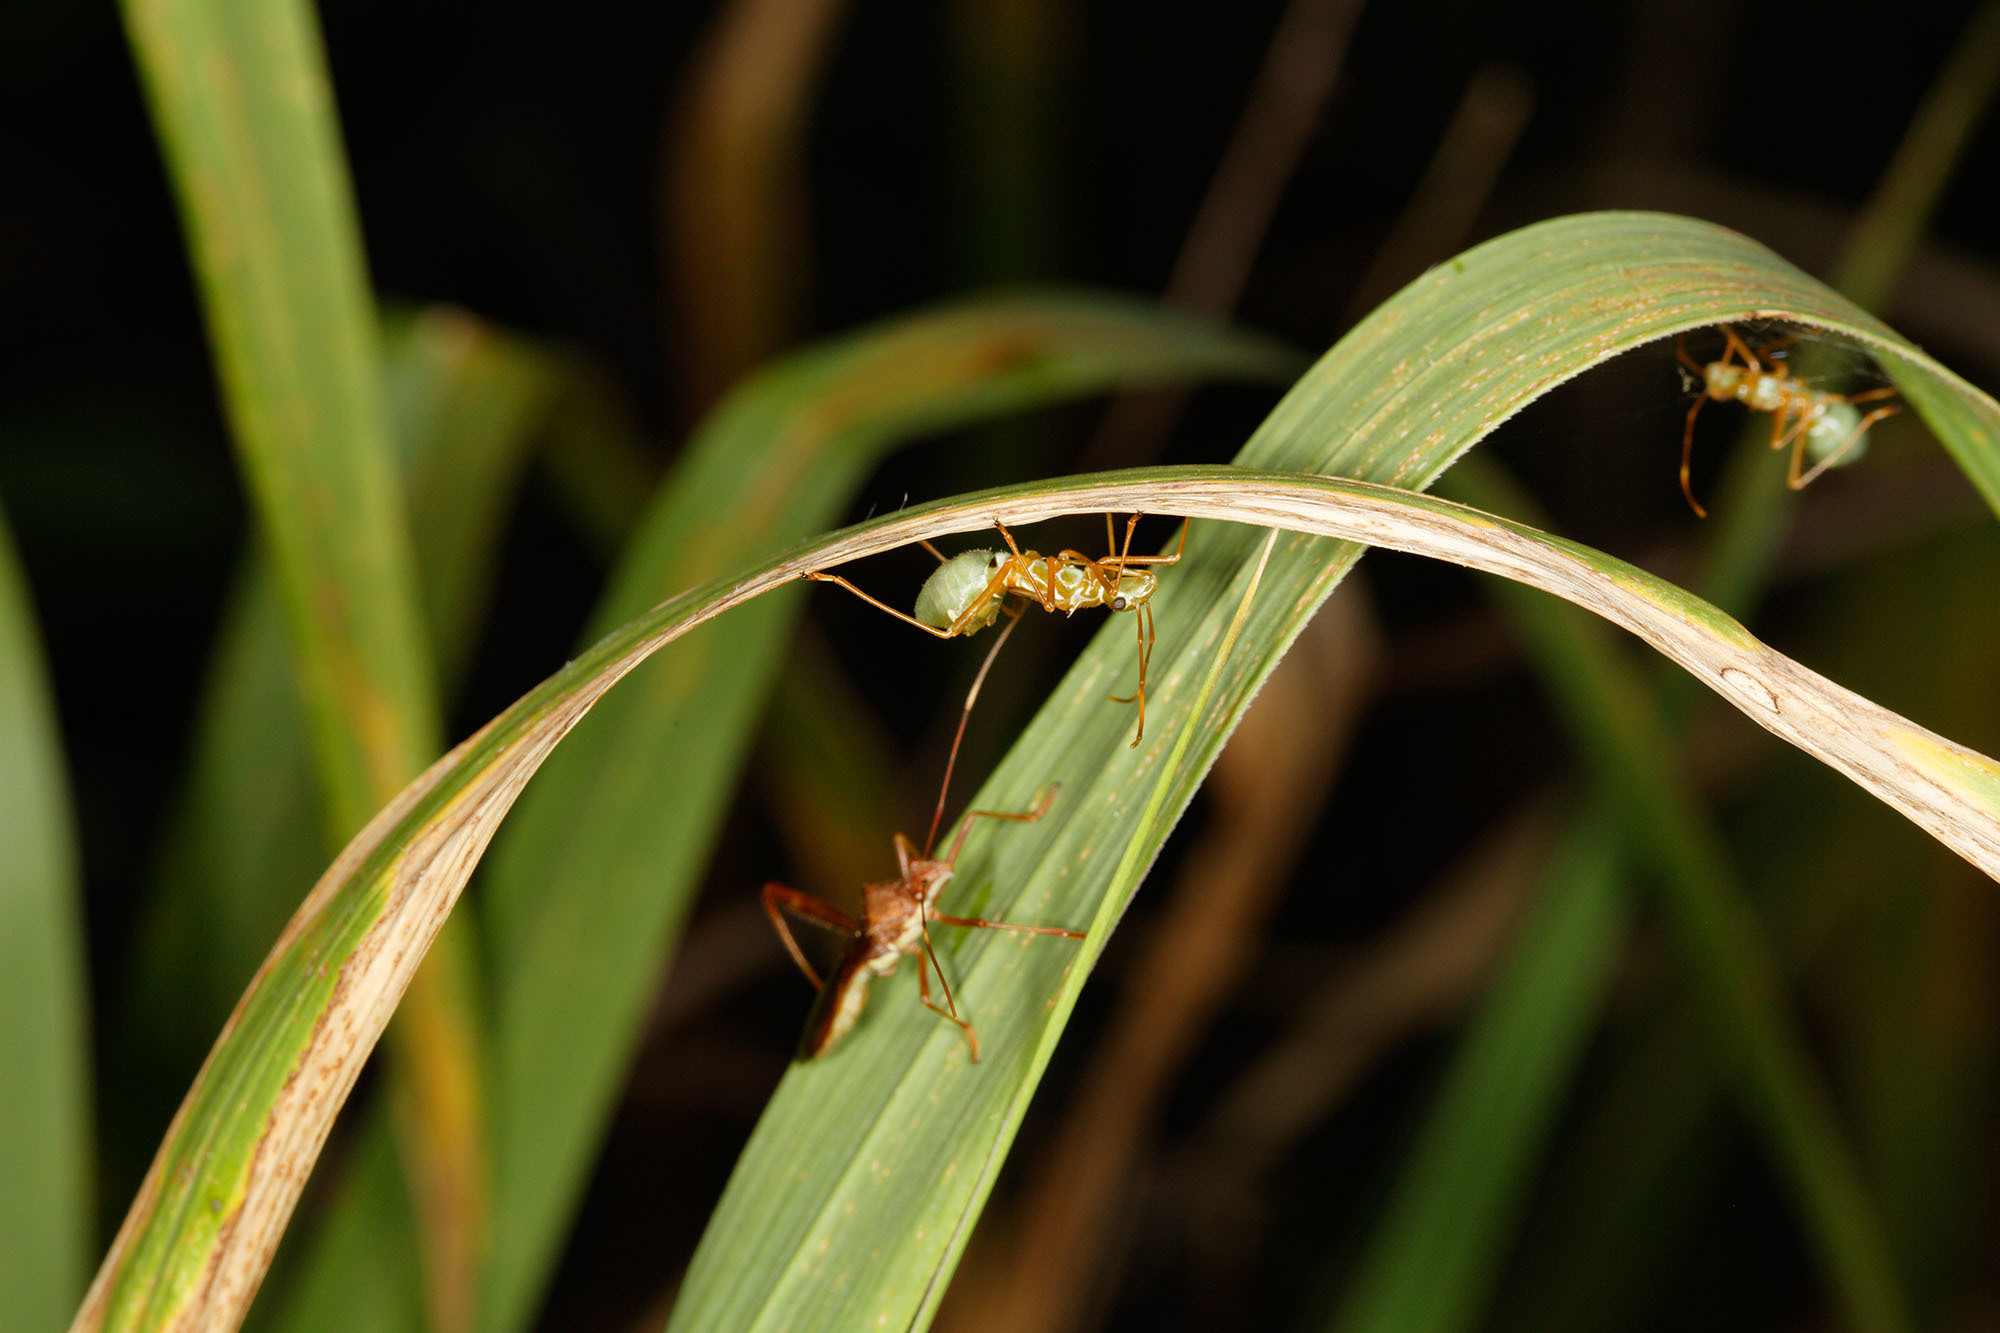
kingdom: Animalia
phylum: Arthropoda
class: Insecta
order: Hemiptera
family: Alydidae
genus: Riptortus
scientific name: Riptortus serripes
